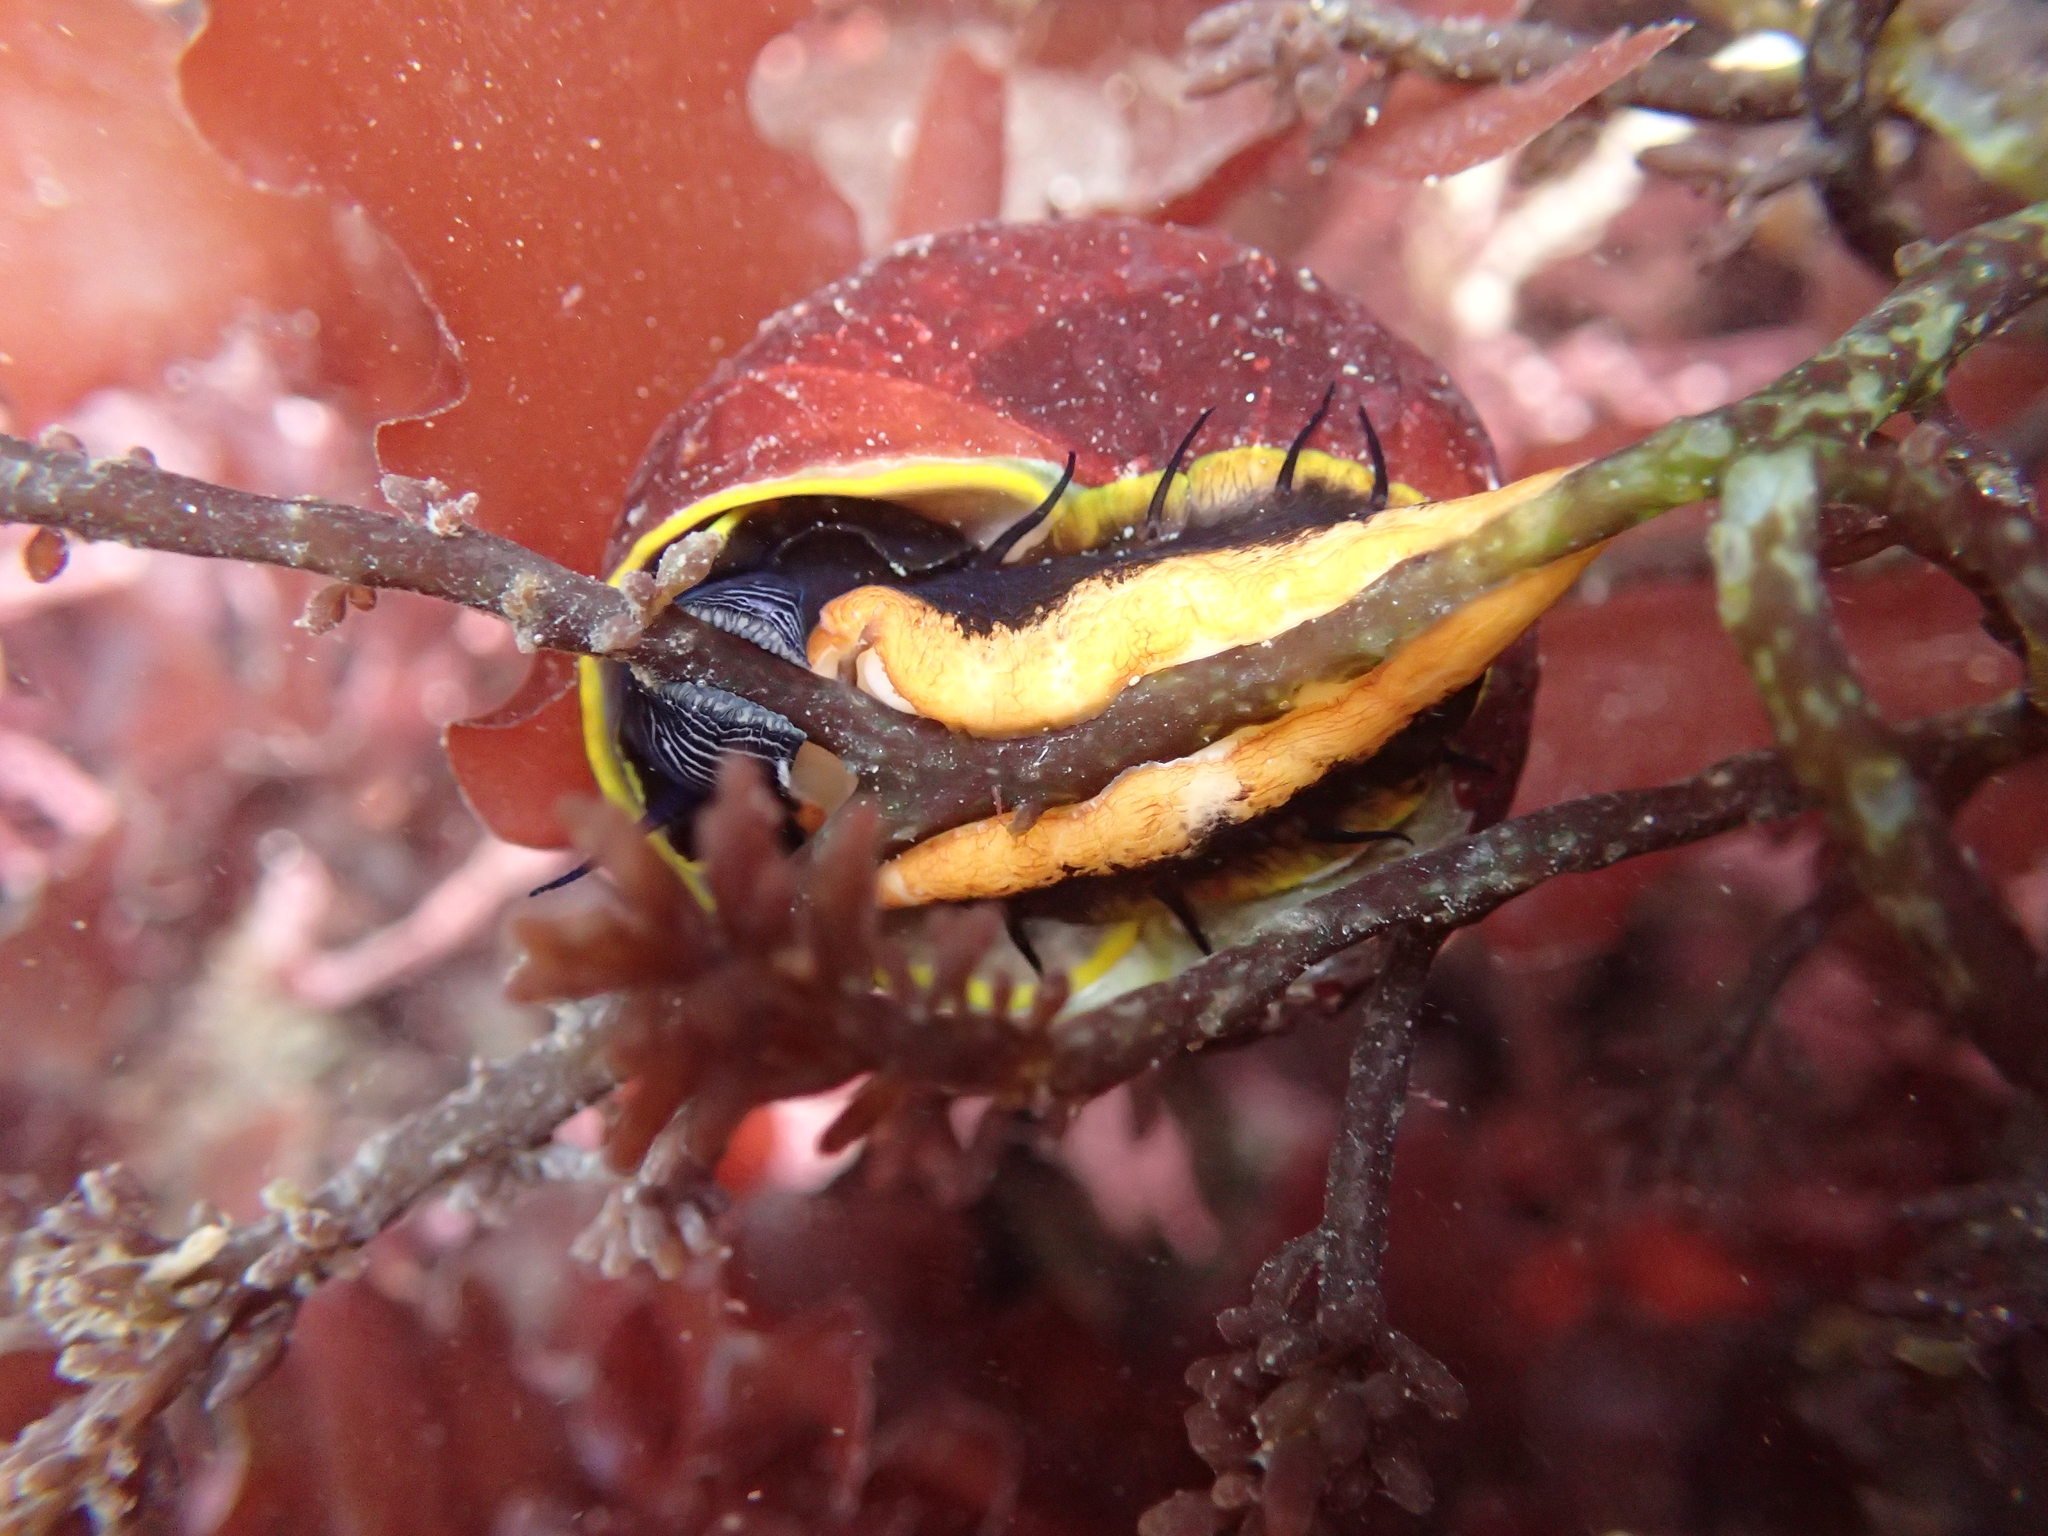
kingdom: Animalia
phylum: Mollusca
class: Gastropoda
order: Trochida
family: Tegulidae
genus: Tegula
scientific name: Tegula brunnea
